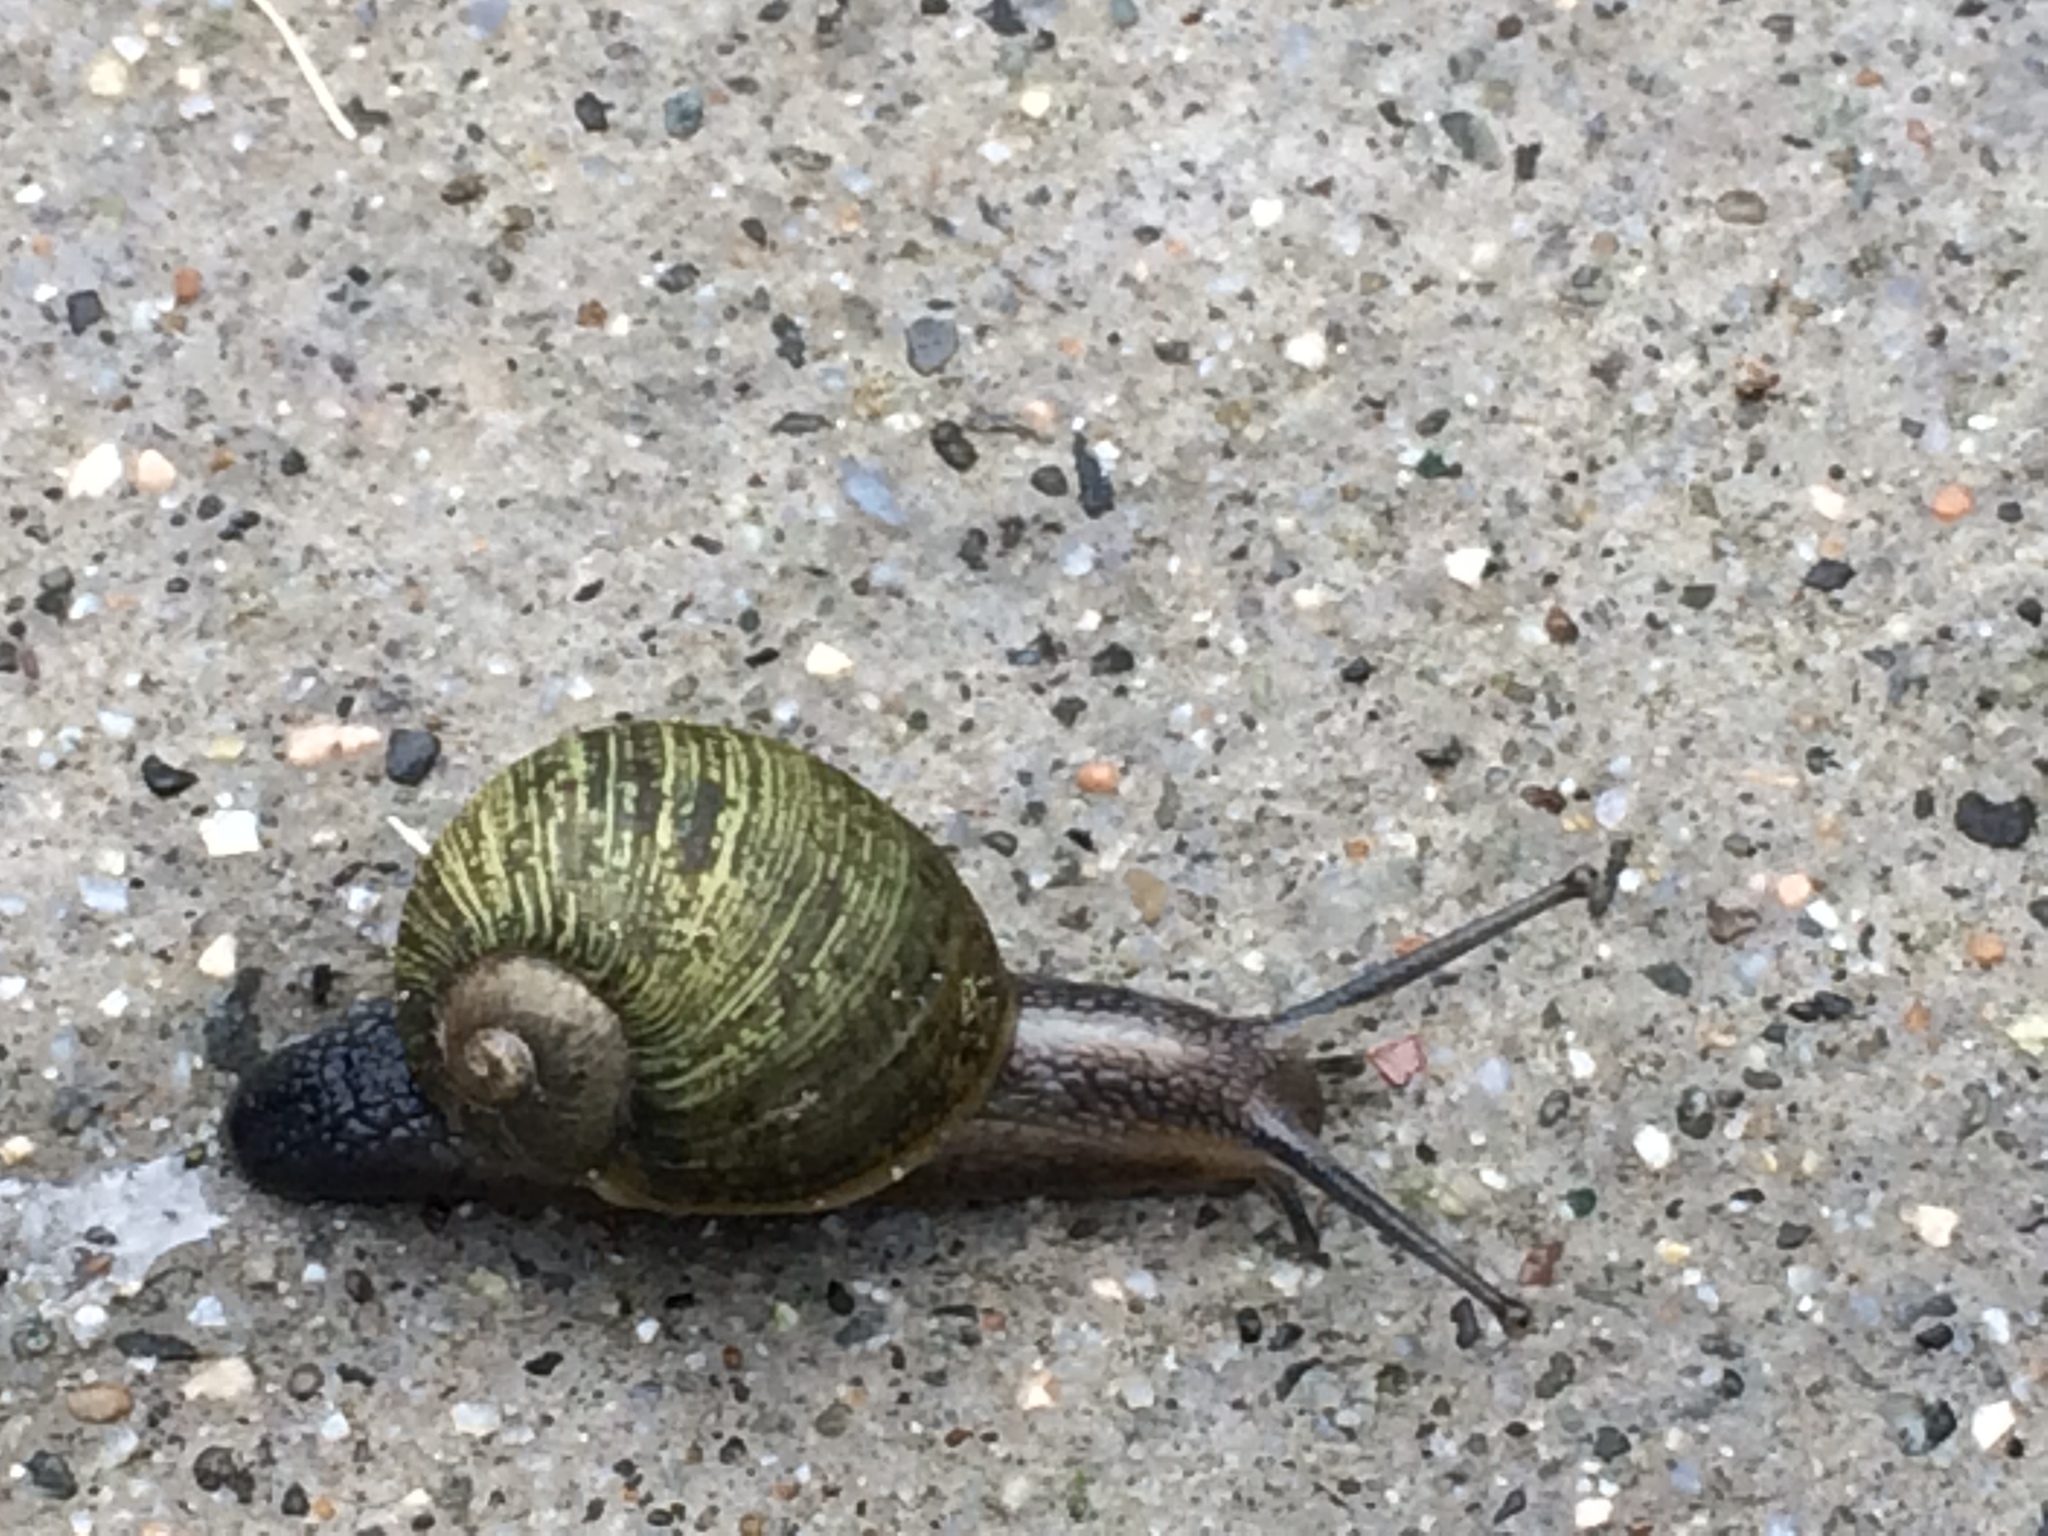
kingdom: Animalia
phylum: Mollusca
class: Gastropoda
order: Stylommatophora
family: Helicidae
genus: Cantareus
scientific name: Cantareus apertus
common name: Green gardensnail
